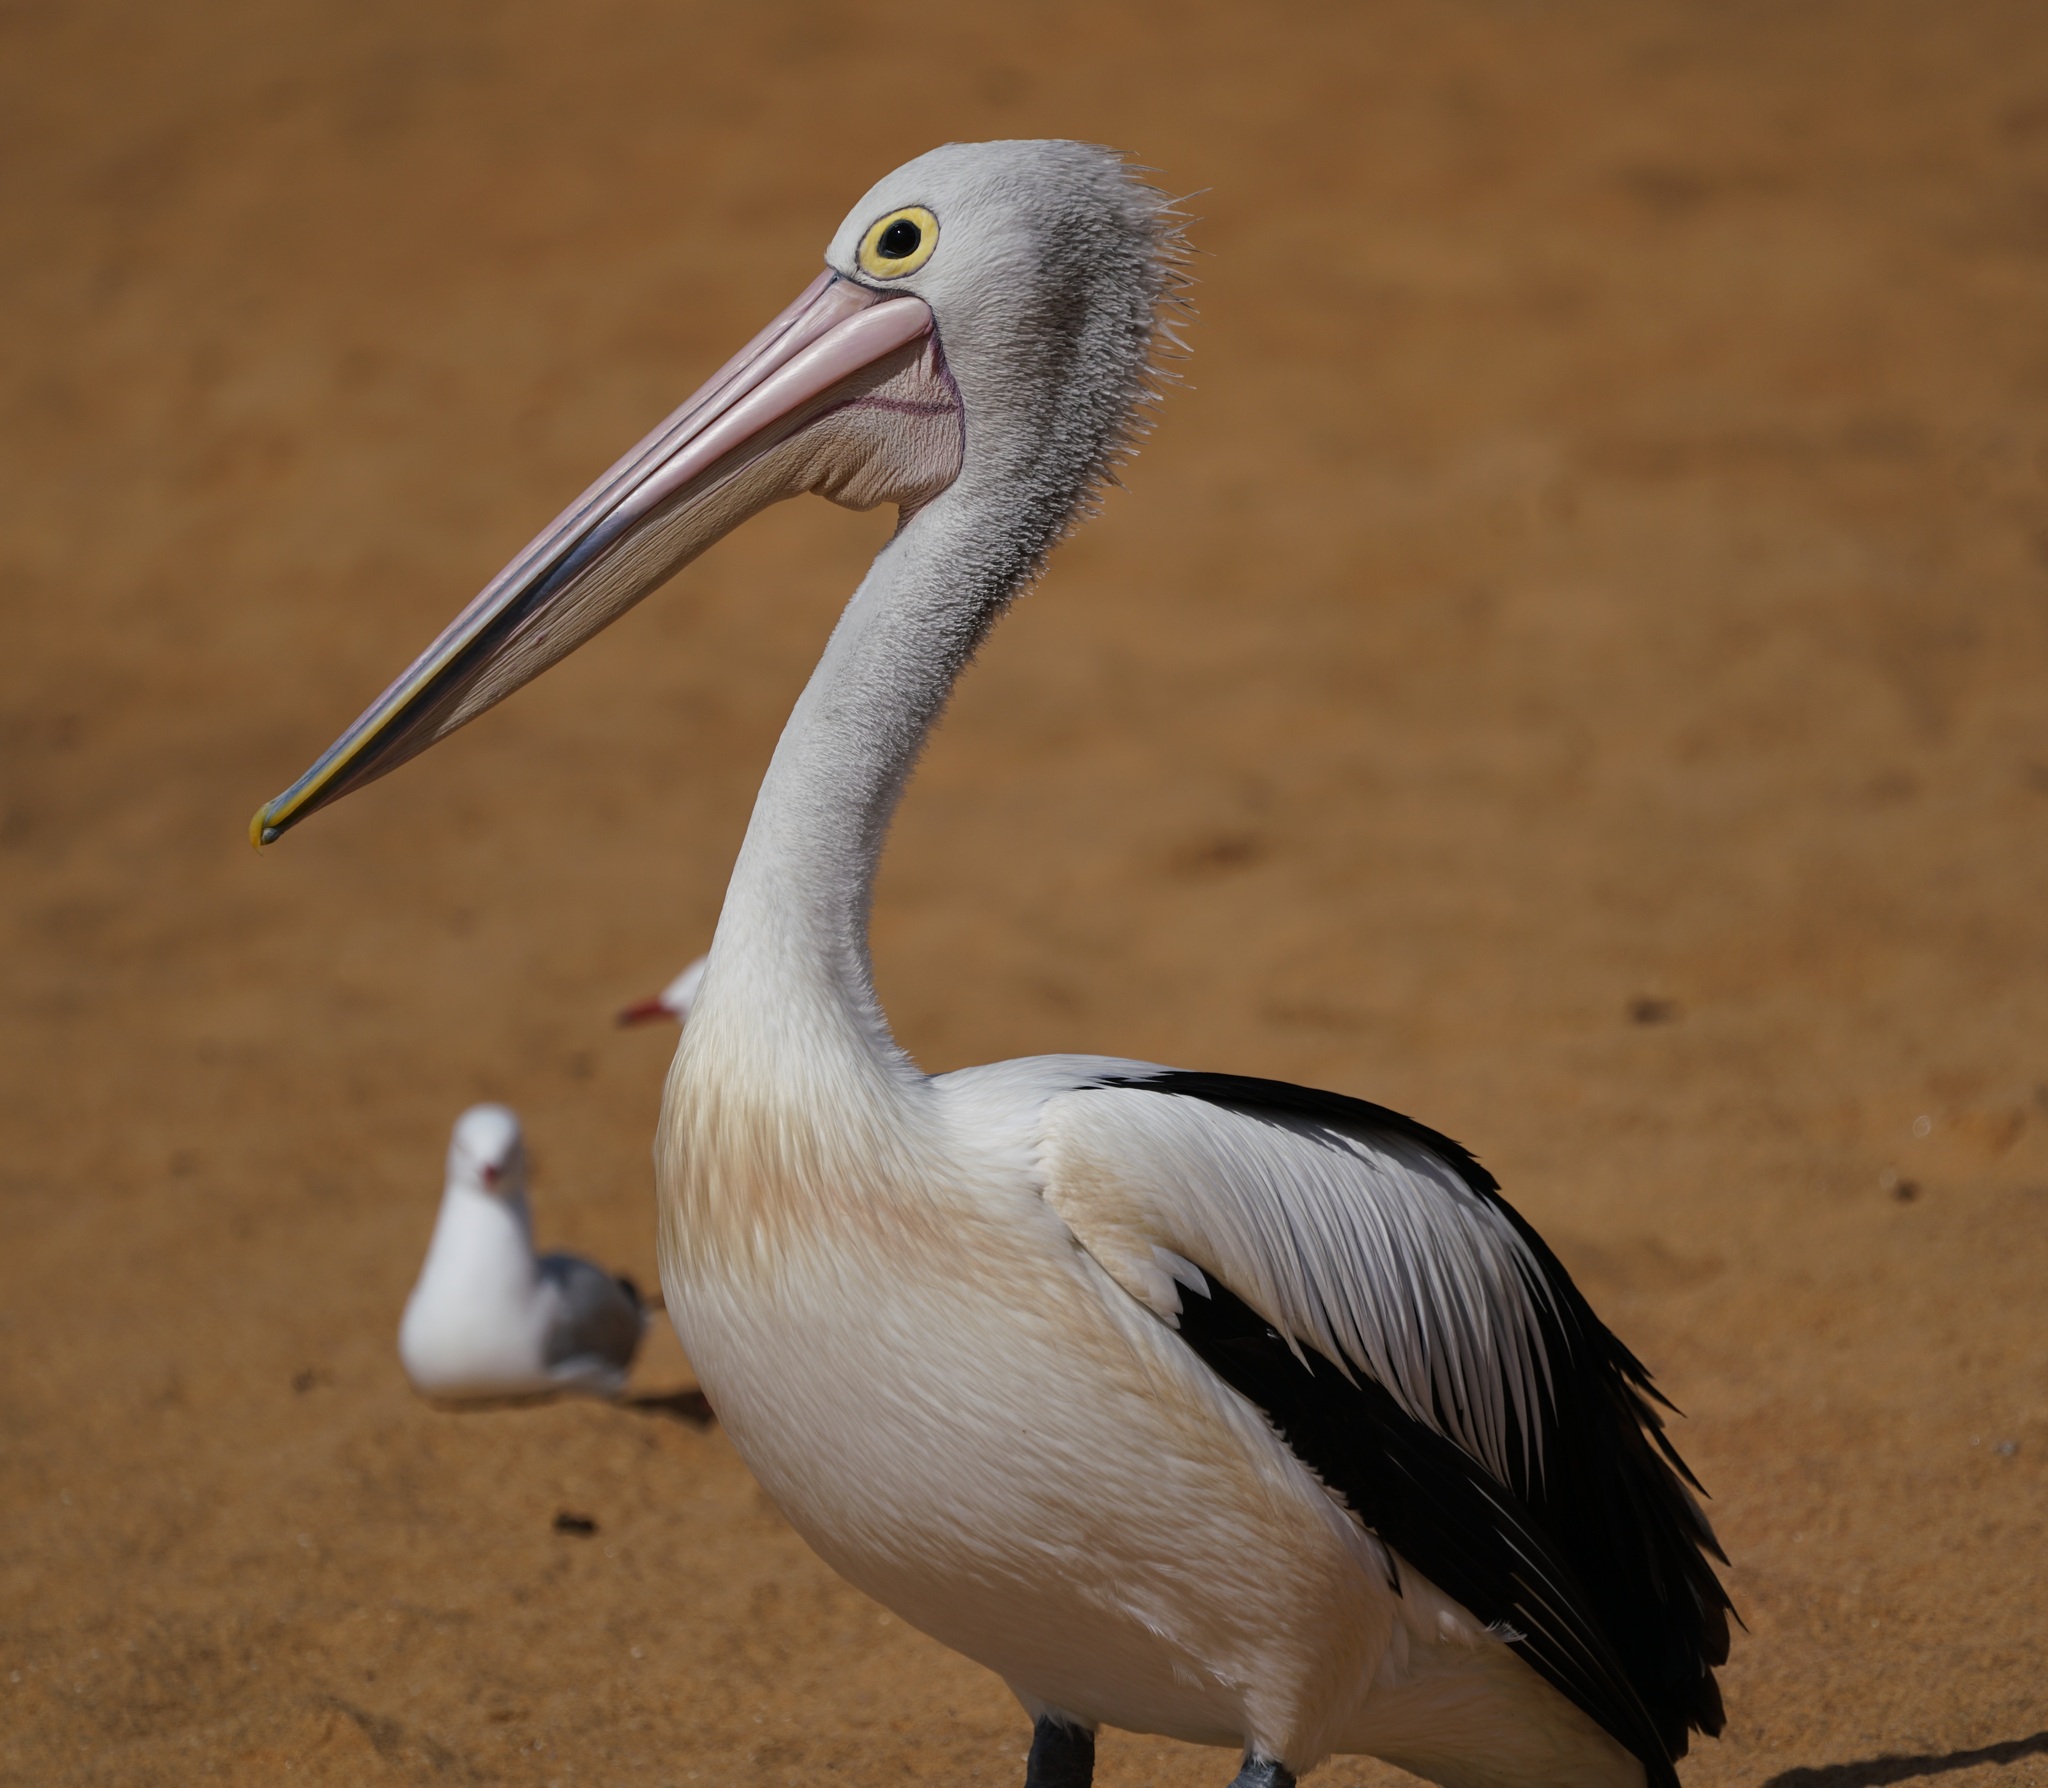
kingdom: Animalia
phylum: Chordata
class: Aves
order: Pelecaniformes
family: Pelecanidae
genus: Pelecanus
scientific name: Pelecanus conspicillatus
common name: Australian pelican
